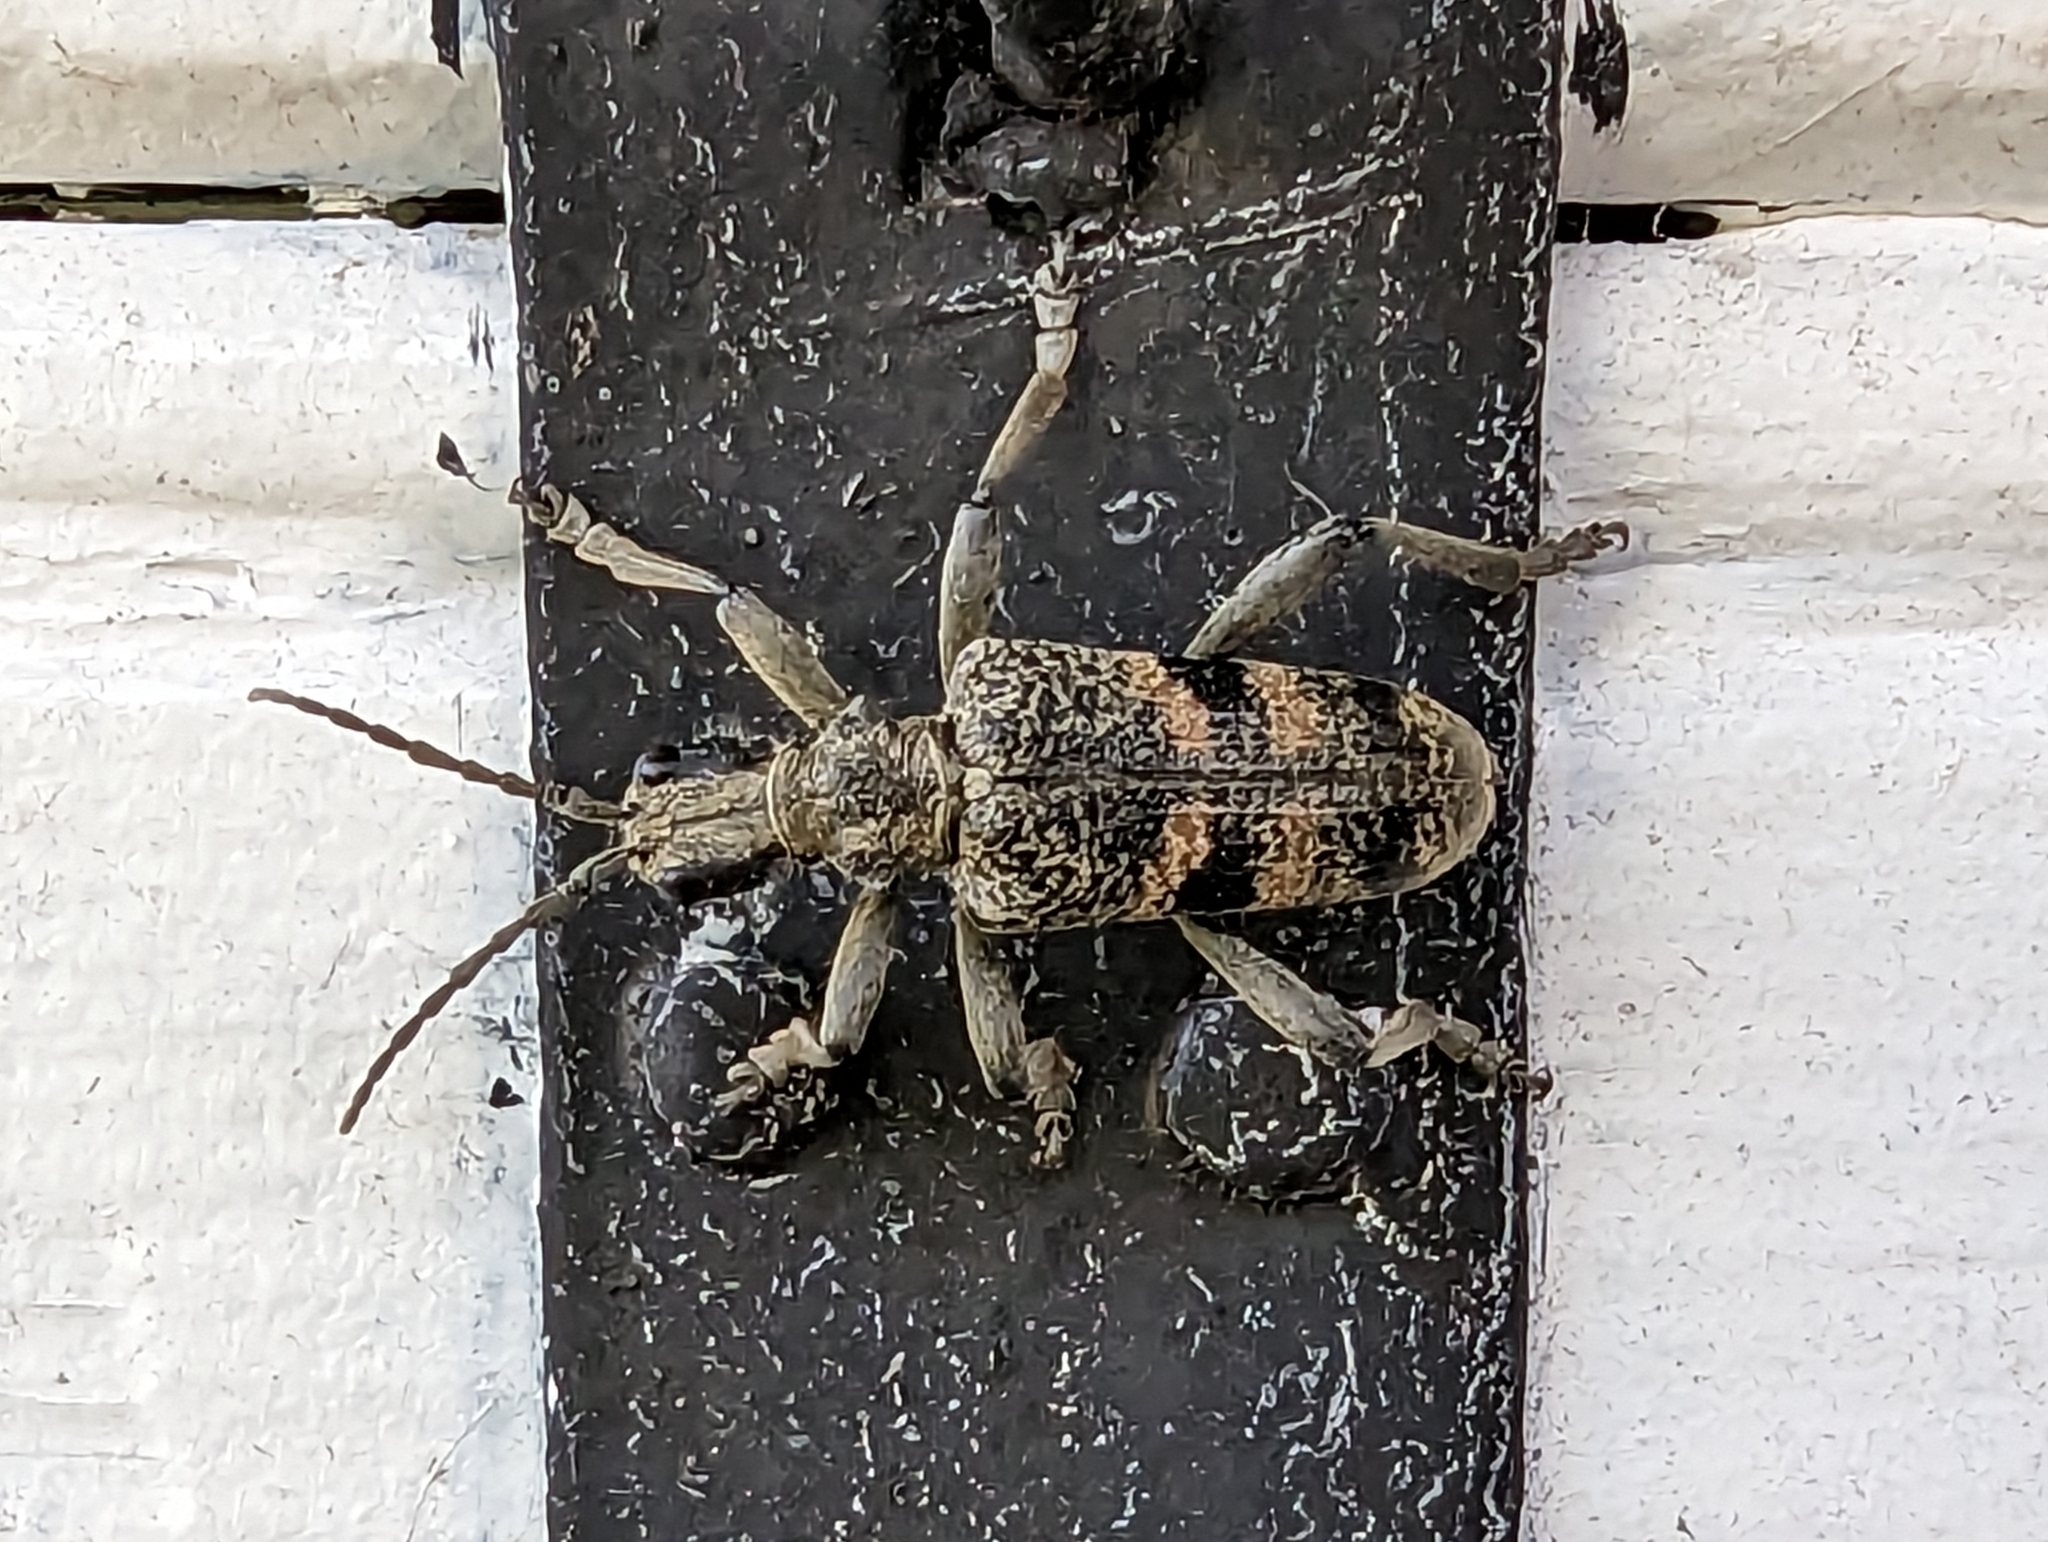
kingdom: Animalia
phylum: Arthropoda
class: Insecta
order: Coleoptera
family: Cerambycidae
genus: Rhagium
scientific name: Rhagium mordax
